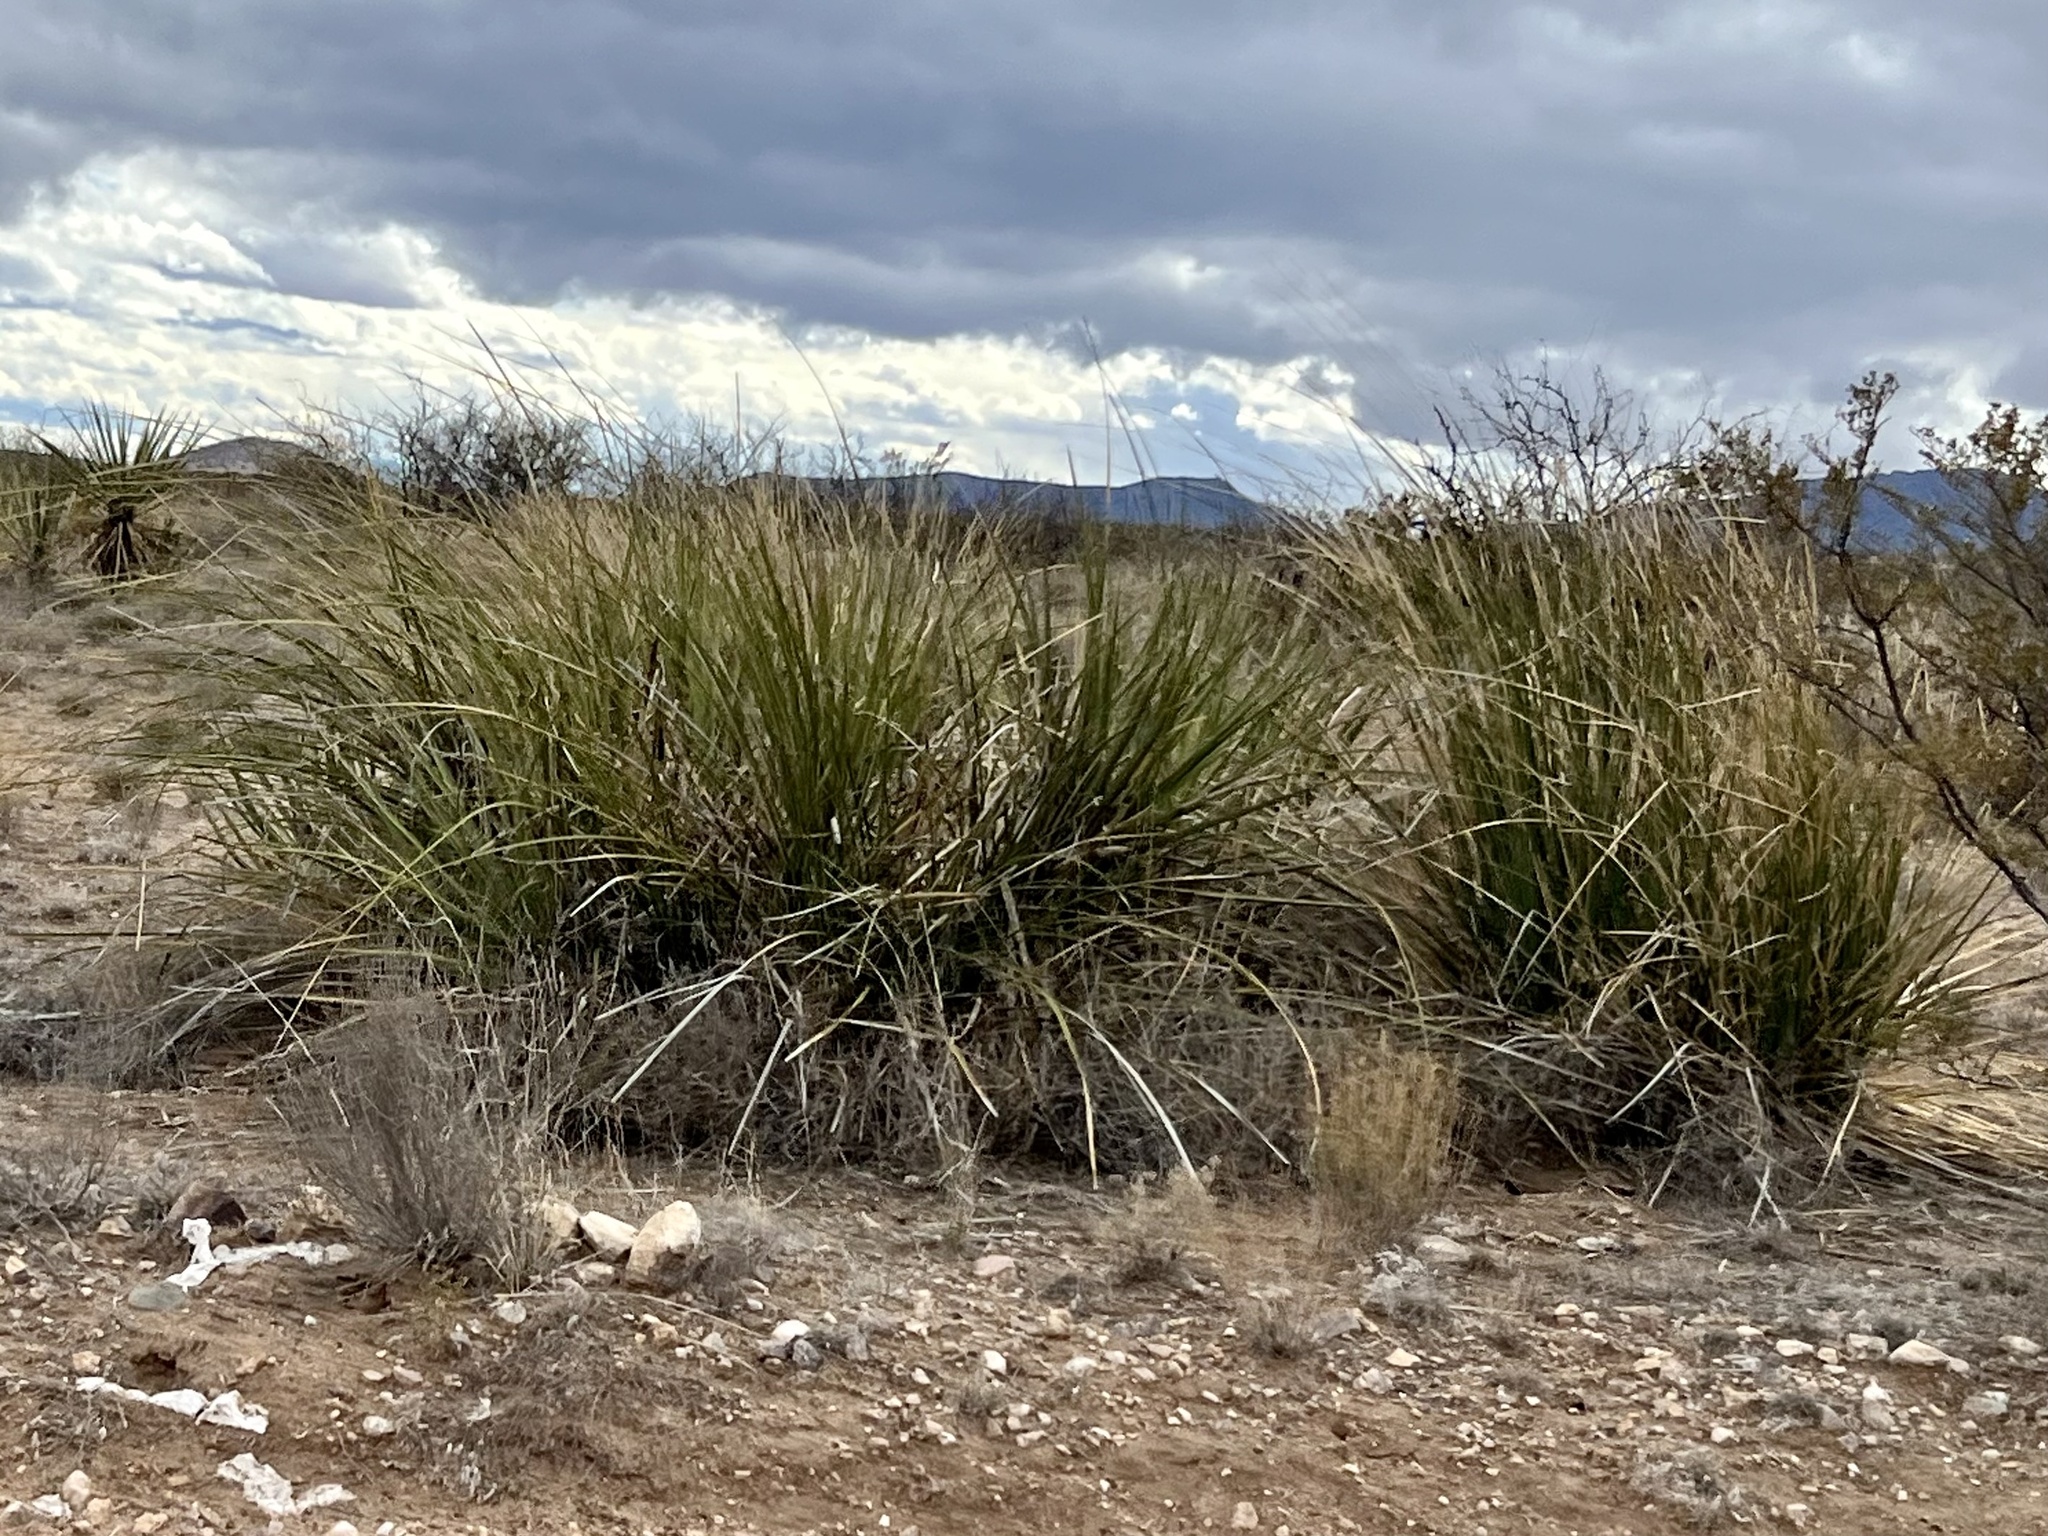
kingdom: Plantae
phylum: Tracheophyta
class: Liliopsida
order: Asparagales
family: Asparagaceae
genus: Nolina
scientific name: Nolina microcarpa
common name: Bear-grass
